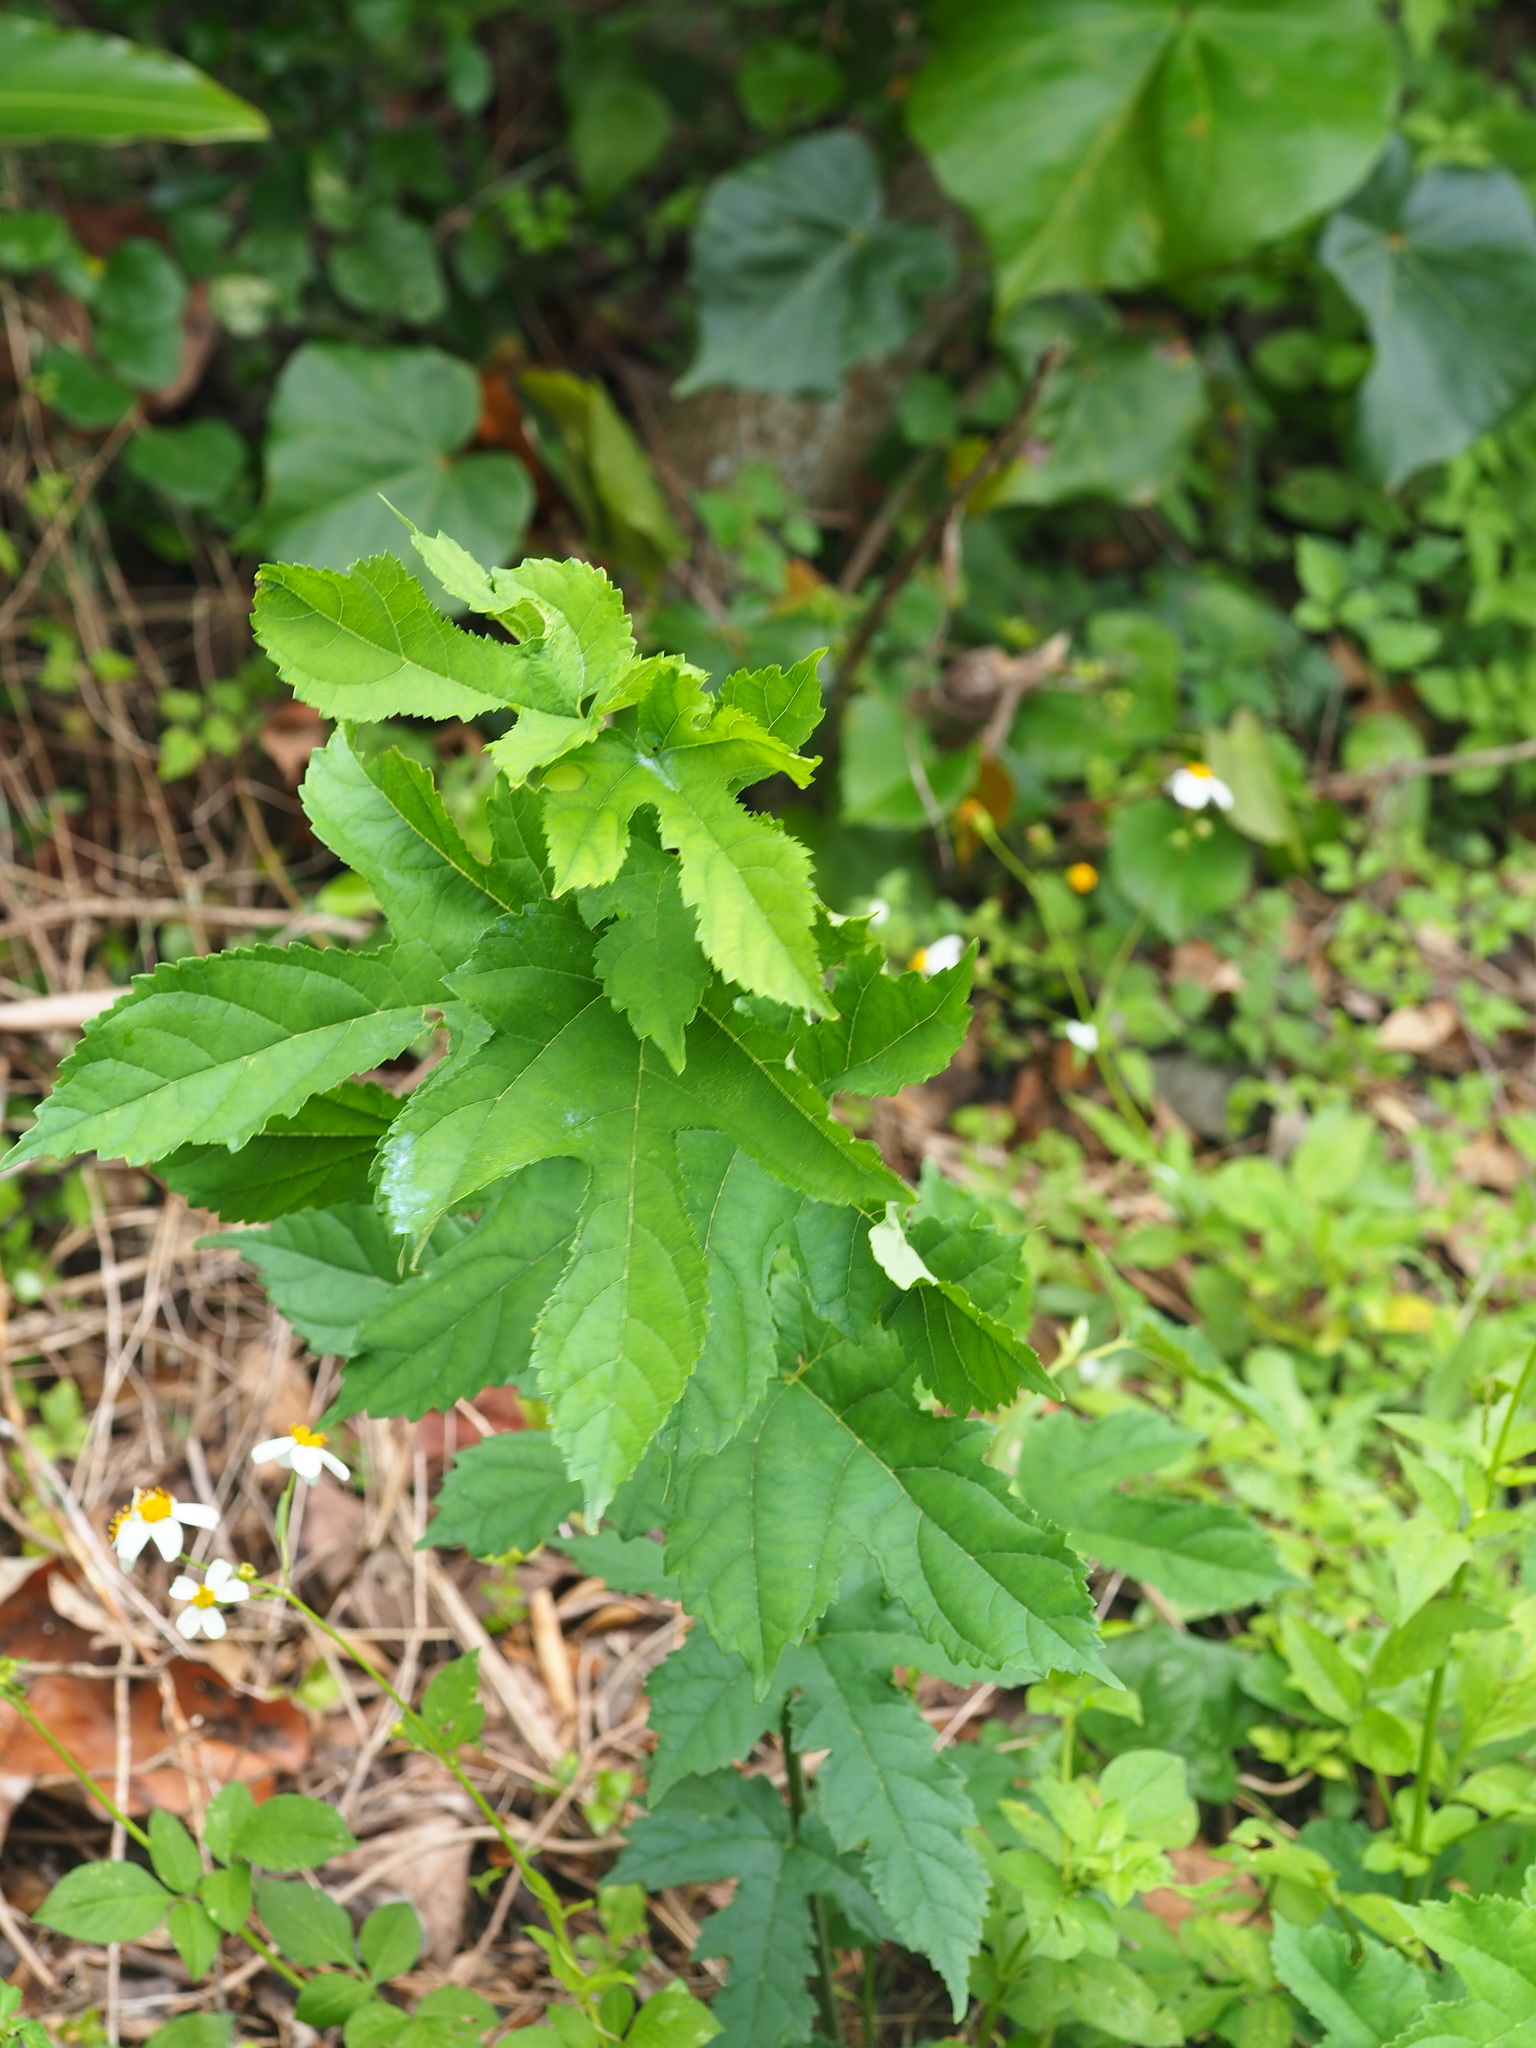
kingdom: Plantae
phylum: Tracheophyta
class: Magnoliopsida
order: Rosales
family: Moraceae
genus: Morus
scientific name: Morus indica
